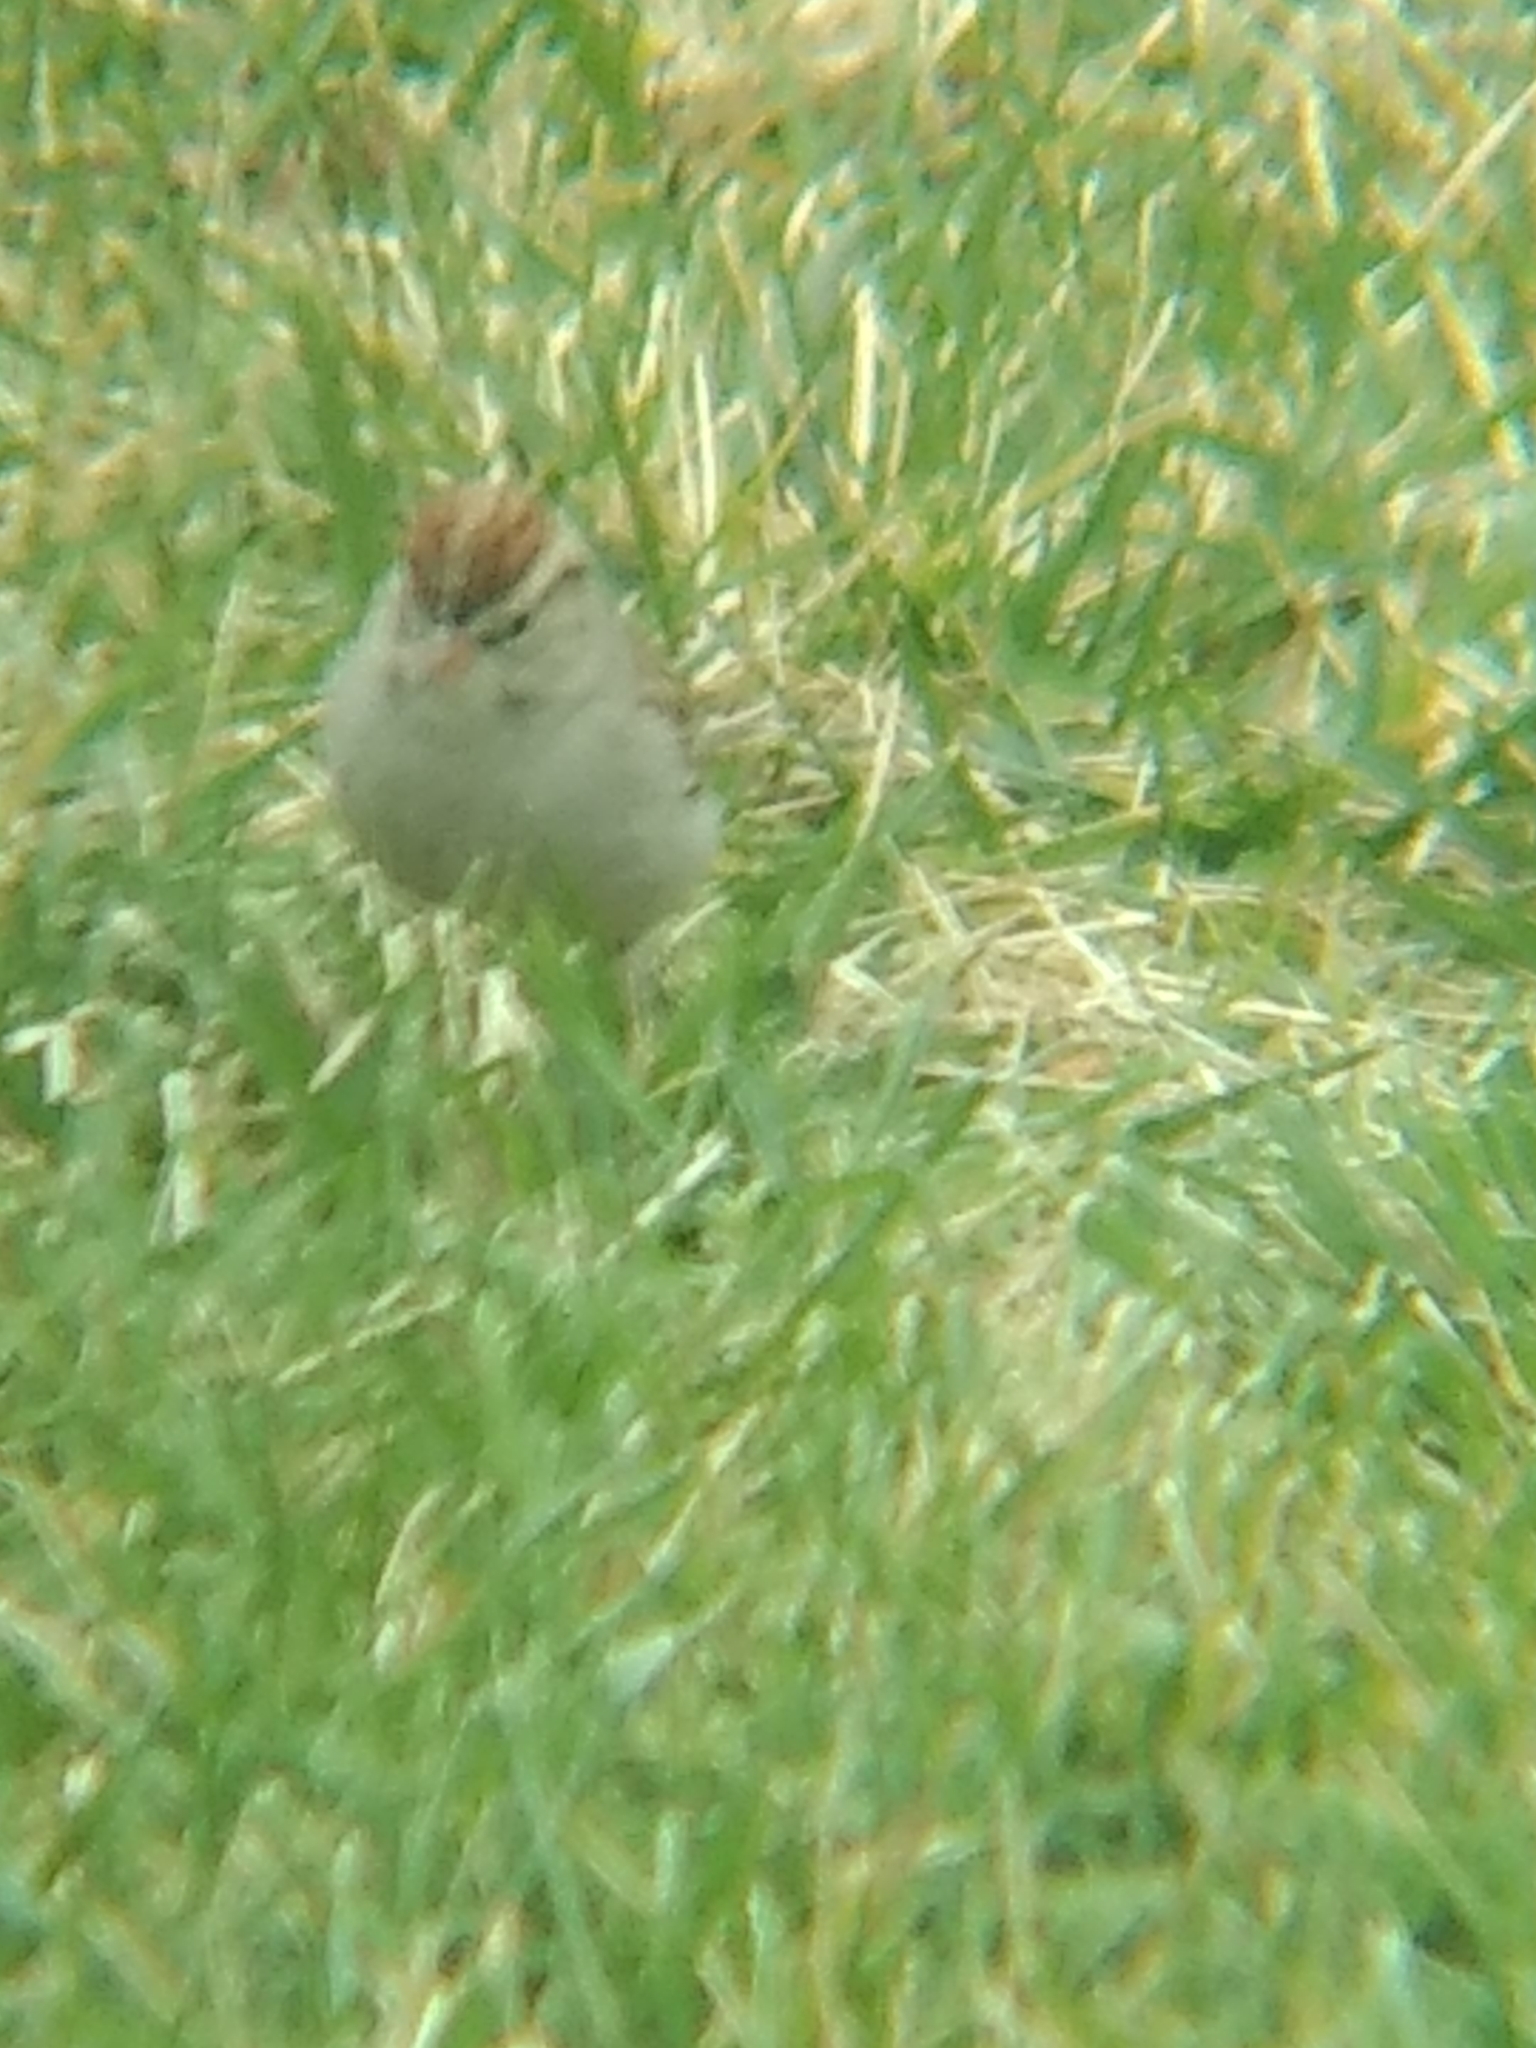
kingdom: Animalia
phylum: Chordata
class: Aves
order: Passeriformes
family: Passerellidae
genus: Spizella
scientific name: Spizella passerina
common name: Chipping sparrow
